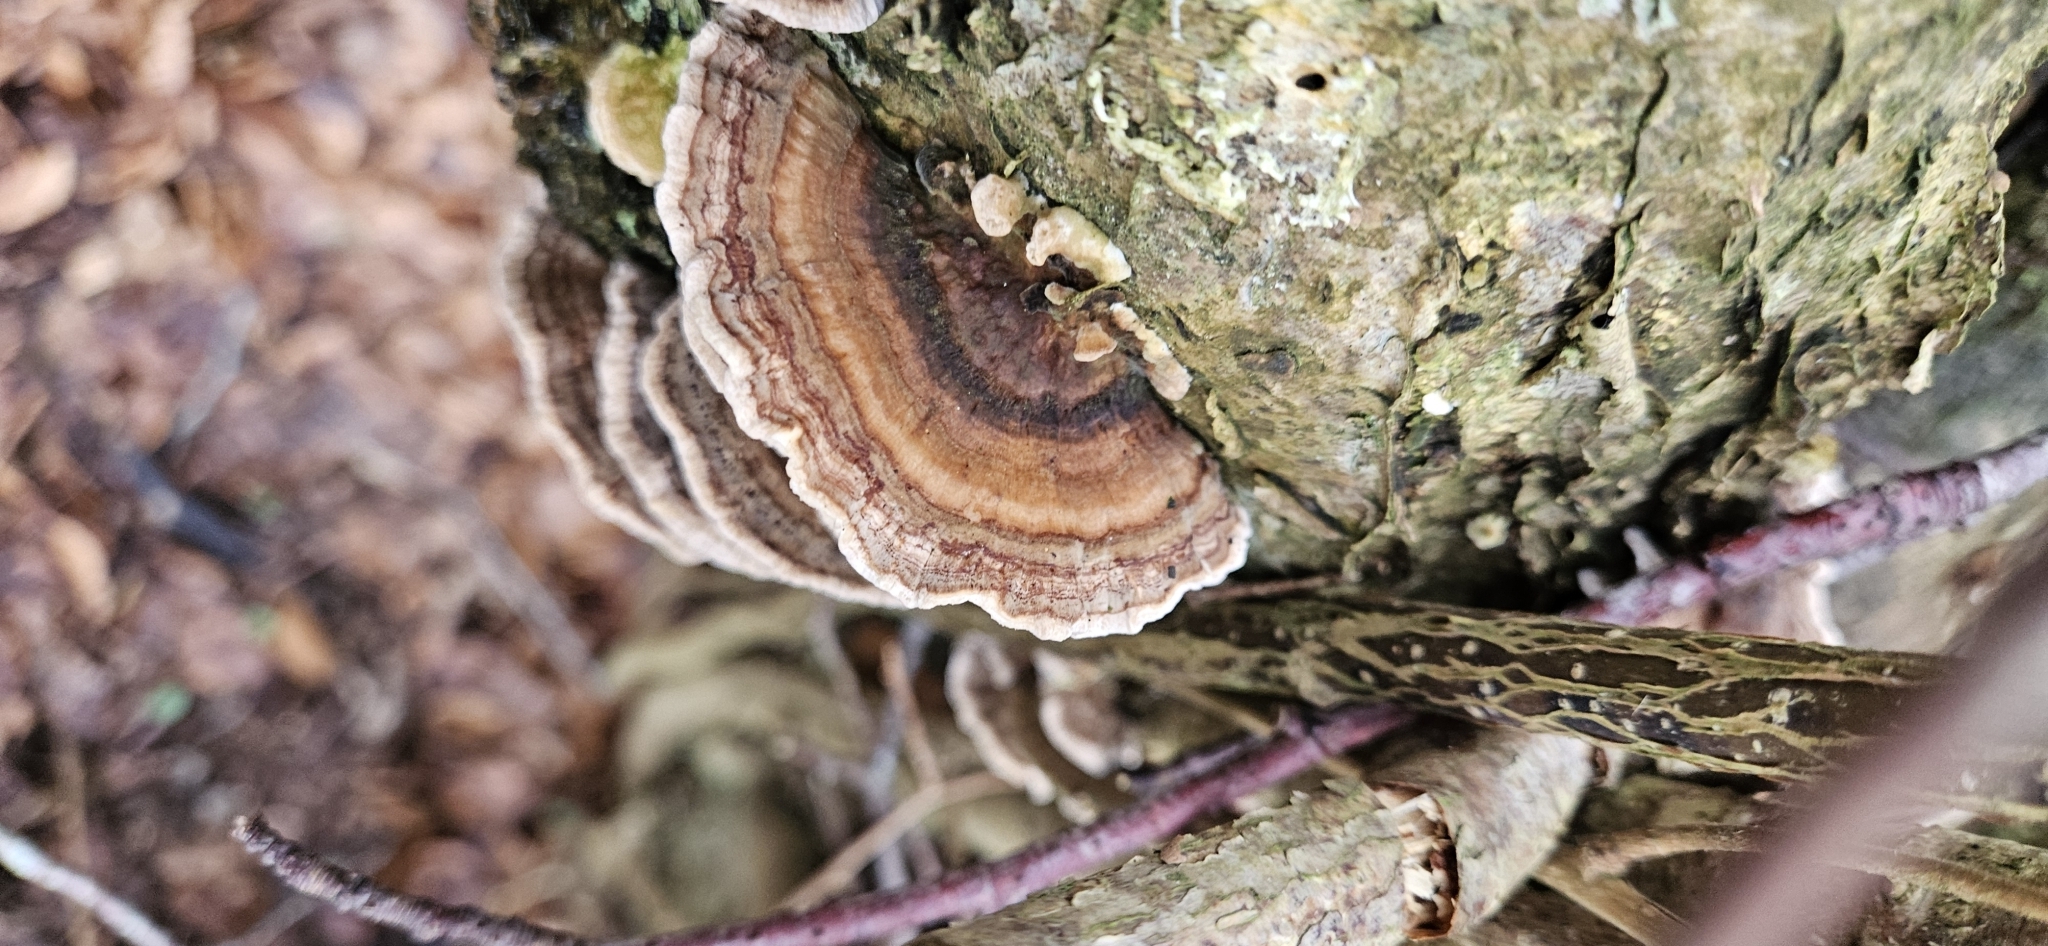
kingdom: Fungi
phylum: Basidiomycota
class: Agaricomycetes
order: Polyporales
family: Polyporaceae
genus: Trametes
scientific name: Trametes ochracea
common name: Ochre bracket
